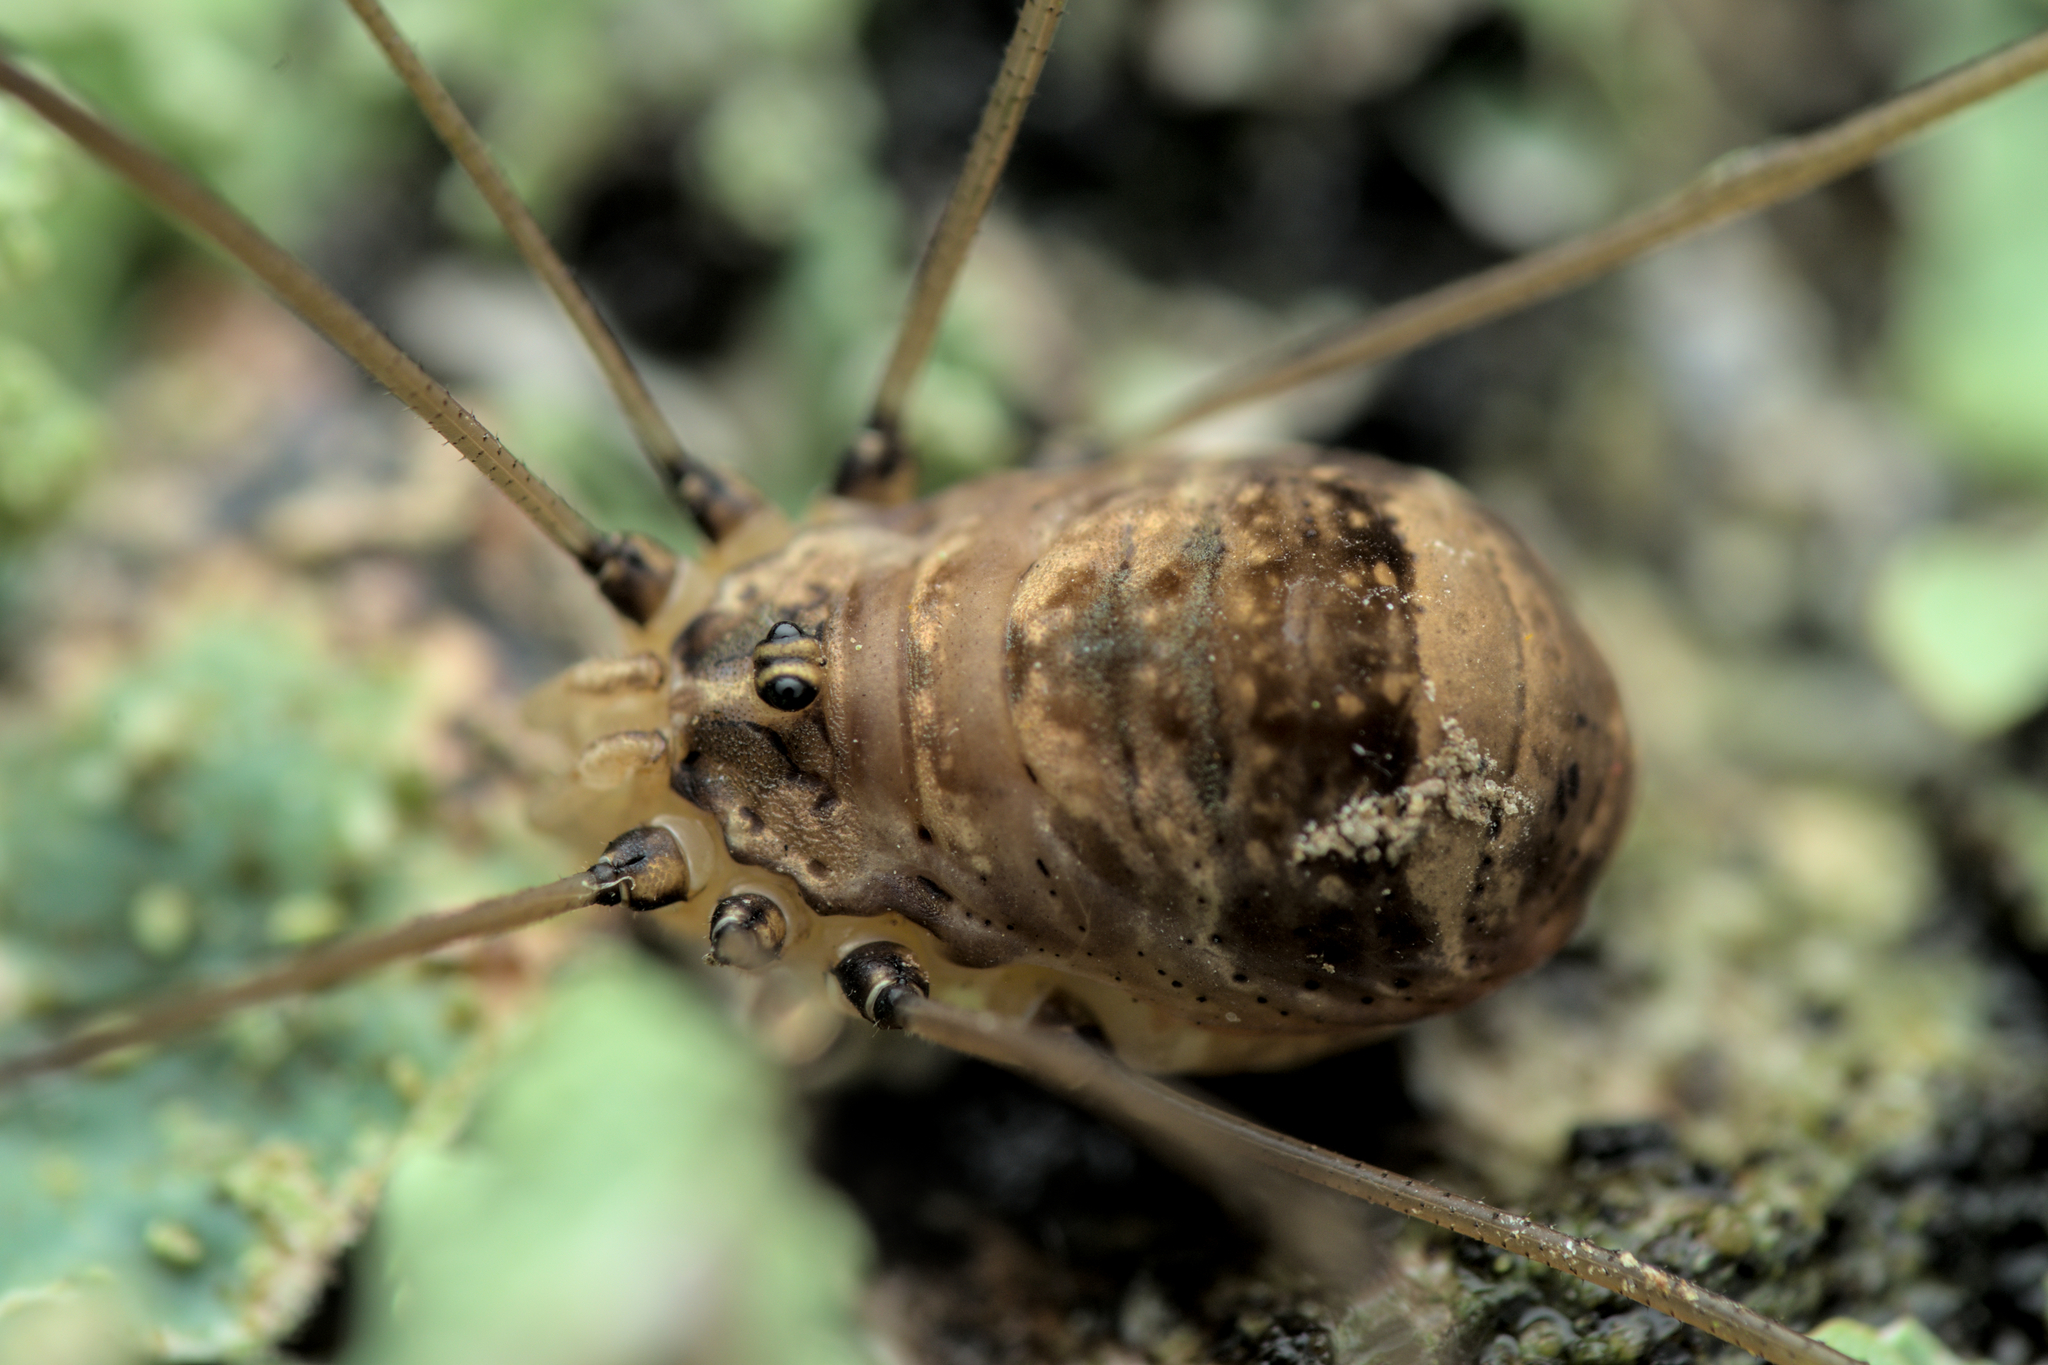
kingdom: Animalia
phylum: Arthropoda
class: Arachnida
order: Opiliones
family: Sclerosomatidae
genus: Leiobunum
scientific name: Leiobunum blackwalli
